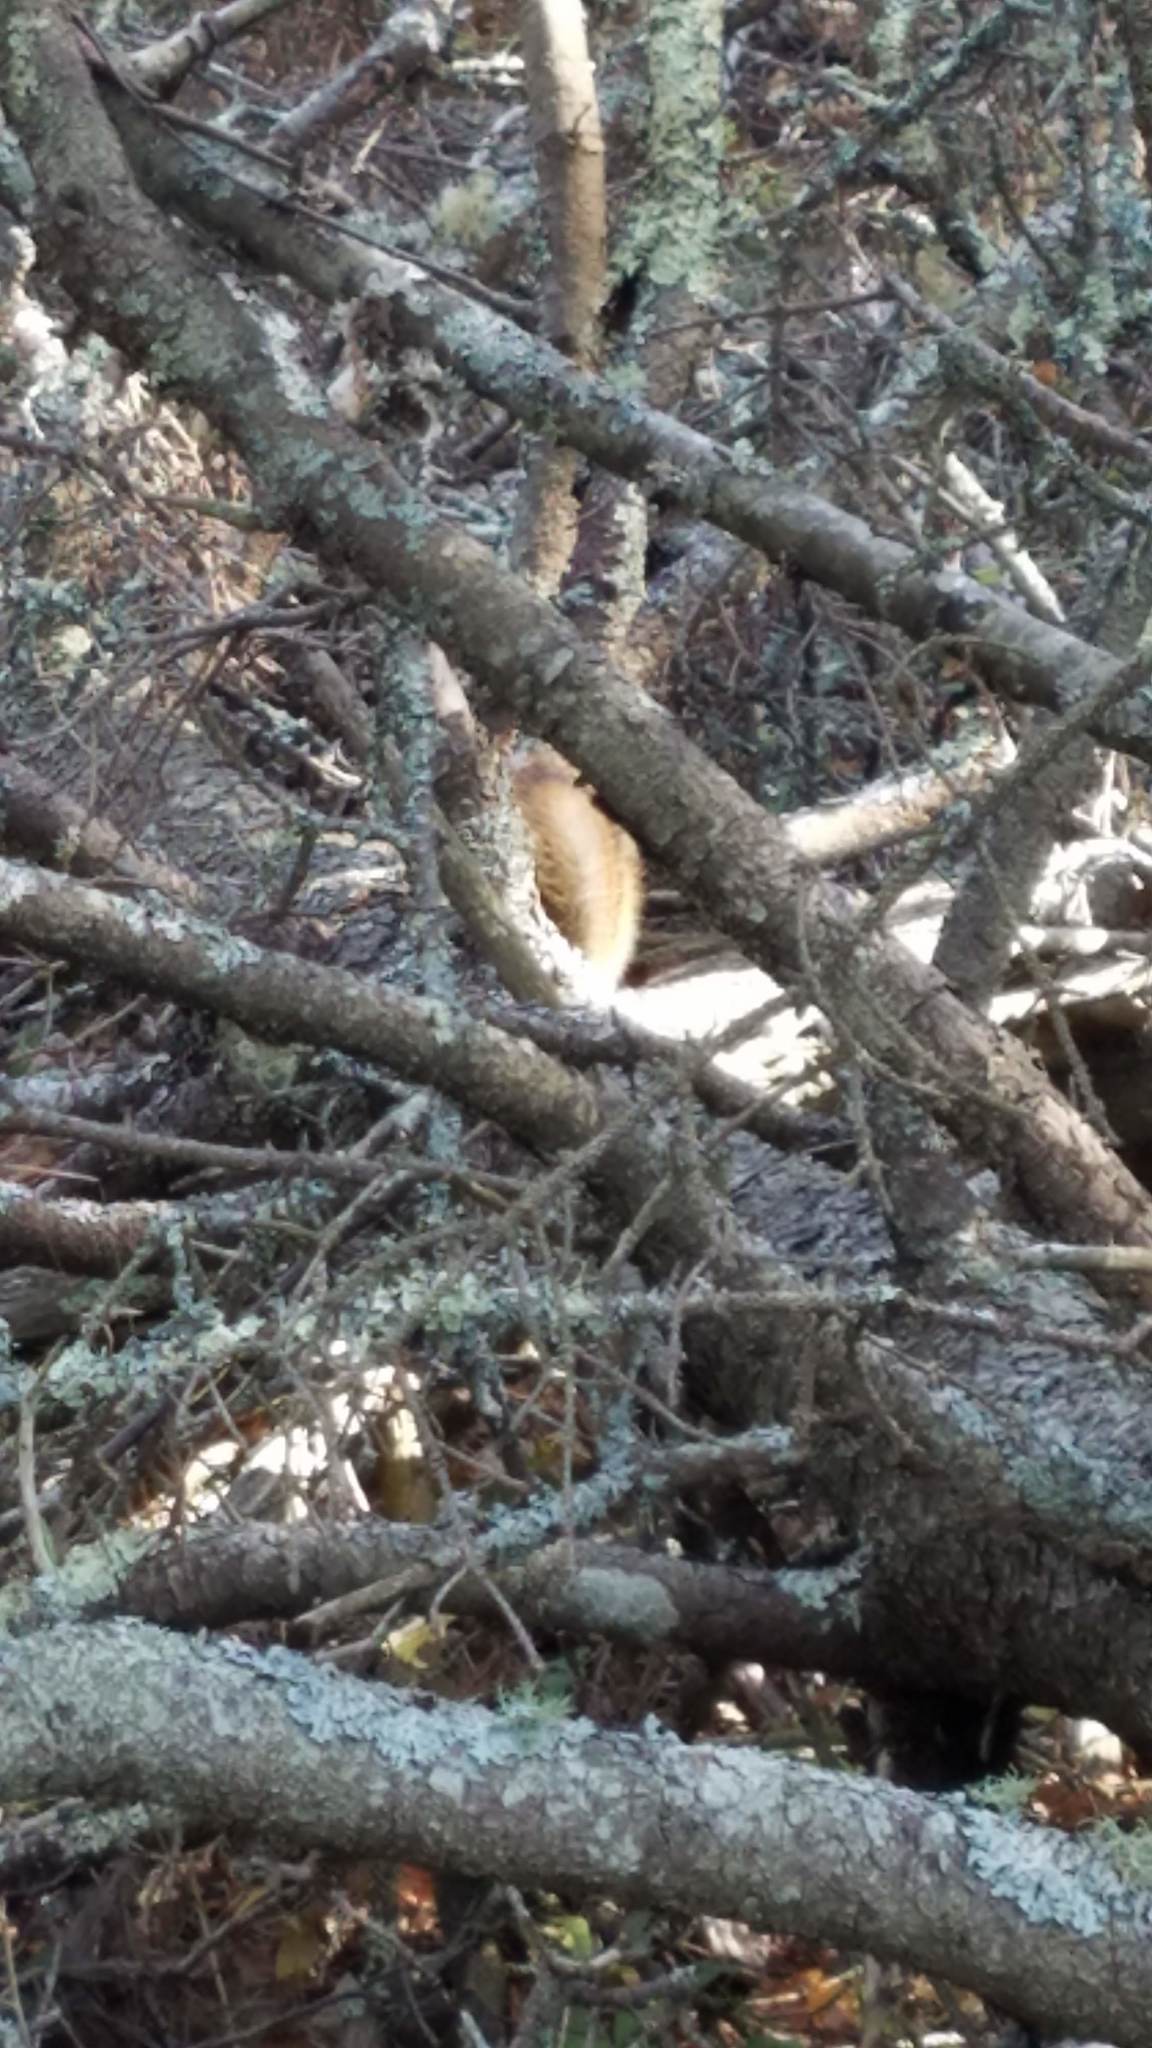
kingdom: Animalia
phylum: Chordata
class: Mammalia
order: Rodentia
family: Sciuridae
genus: Tamiasciurus
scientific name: Tamiasciurus hudsonicus
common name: Red squirrel
